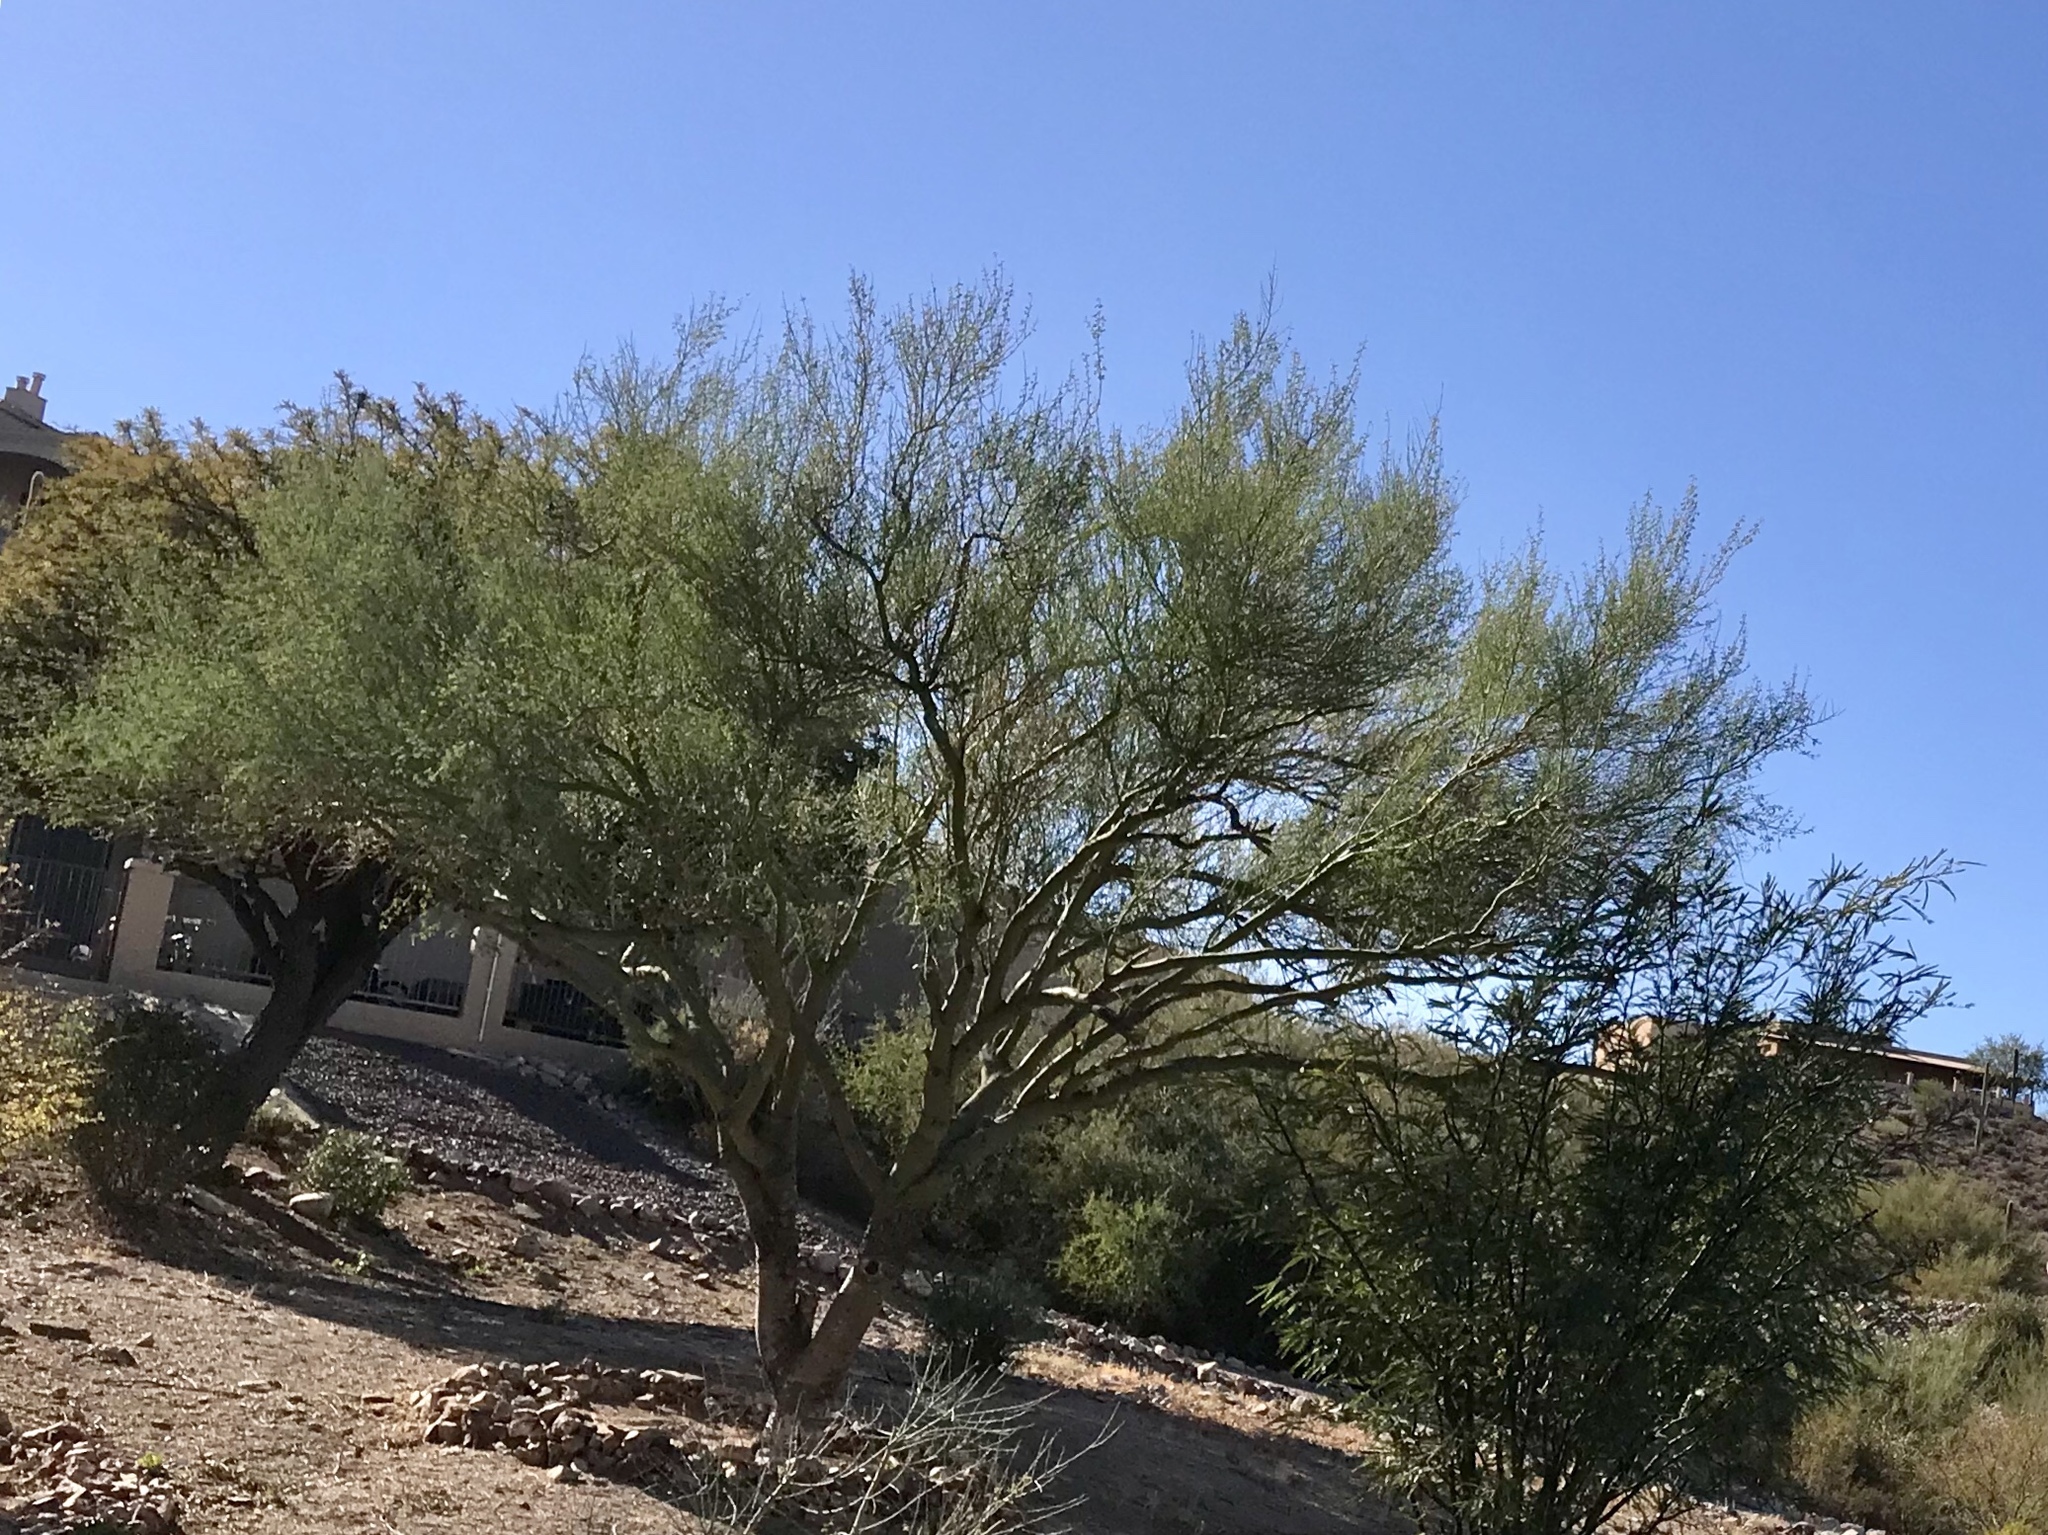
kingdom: Plantae
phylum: Tracheophyta
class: Magnoliopsida
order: Fabales
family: Fabaceae
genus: Parkinsonia
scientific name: Parkinsonia microphylla
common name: Yellow paloverde
